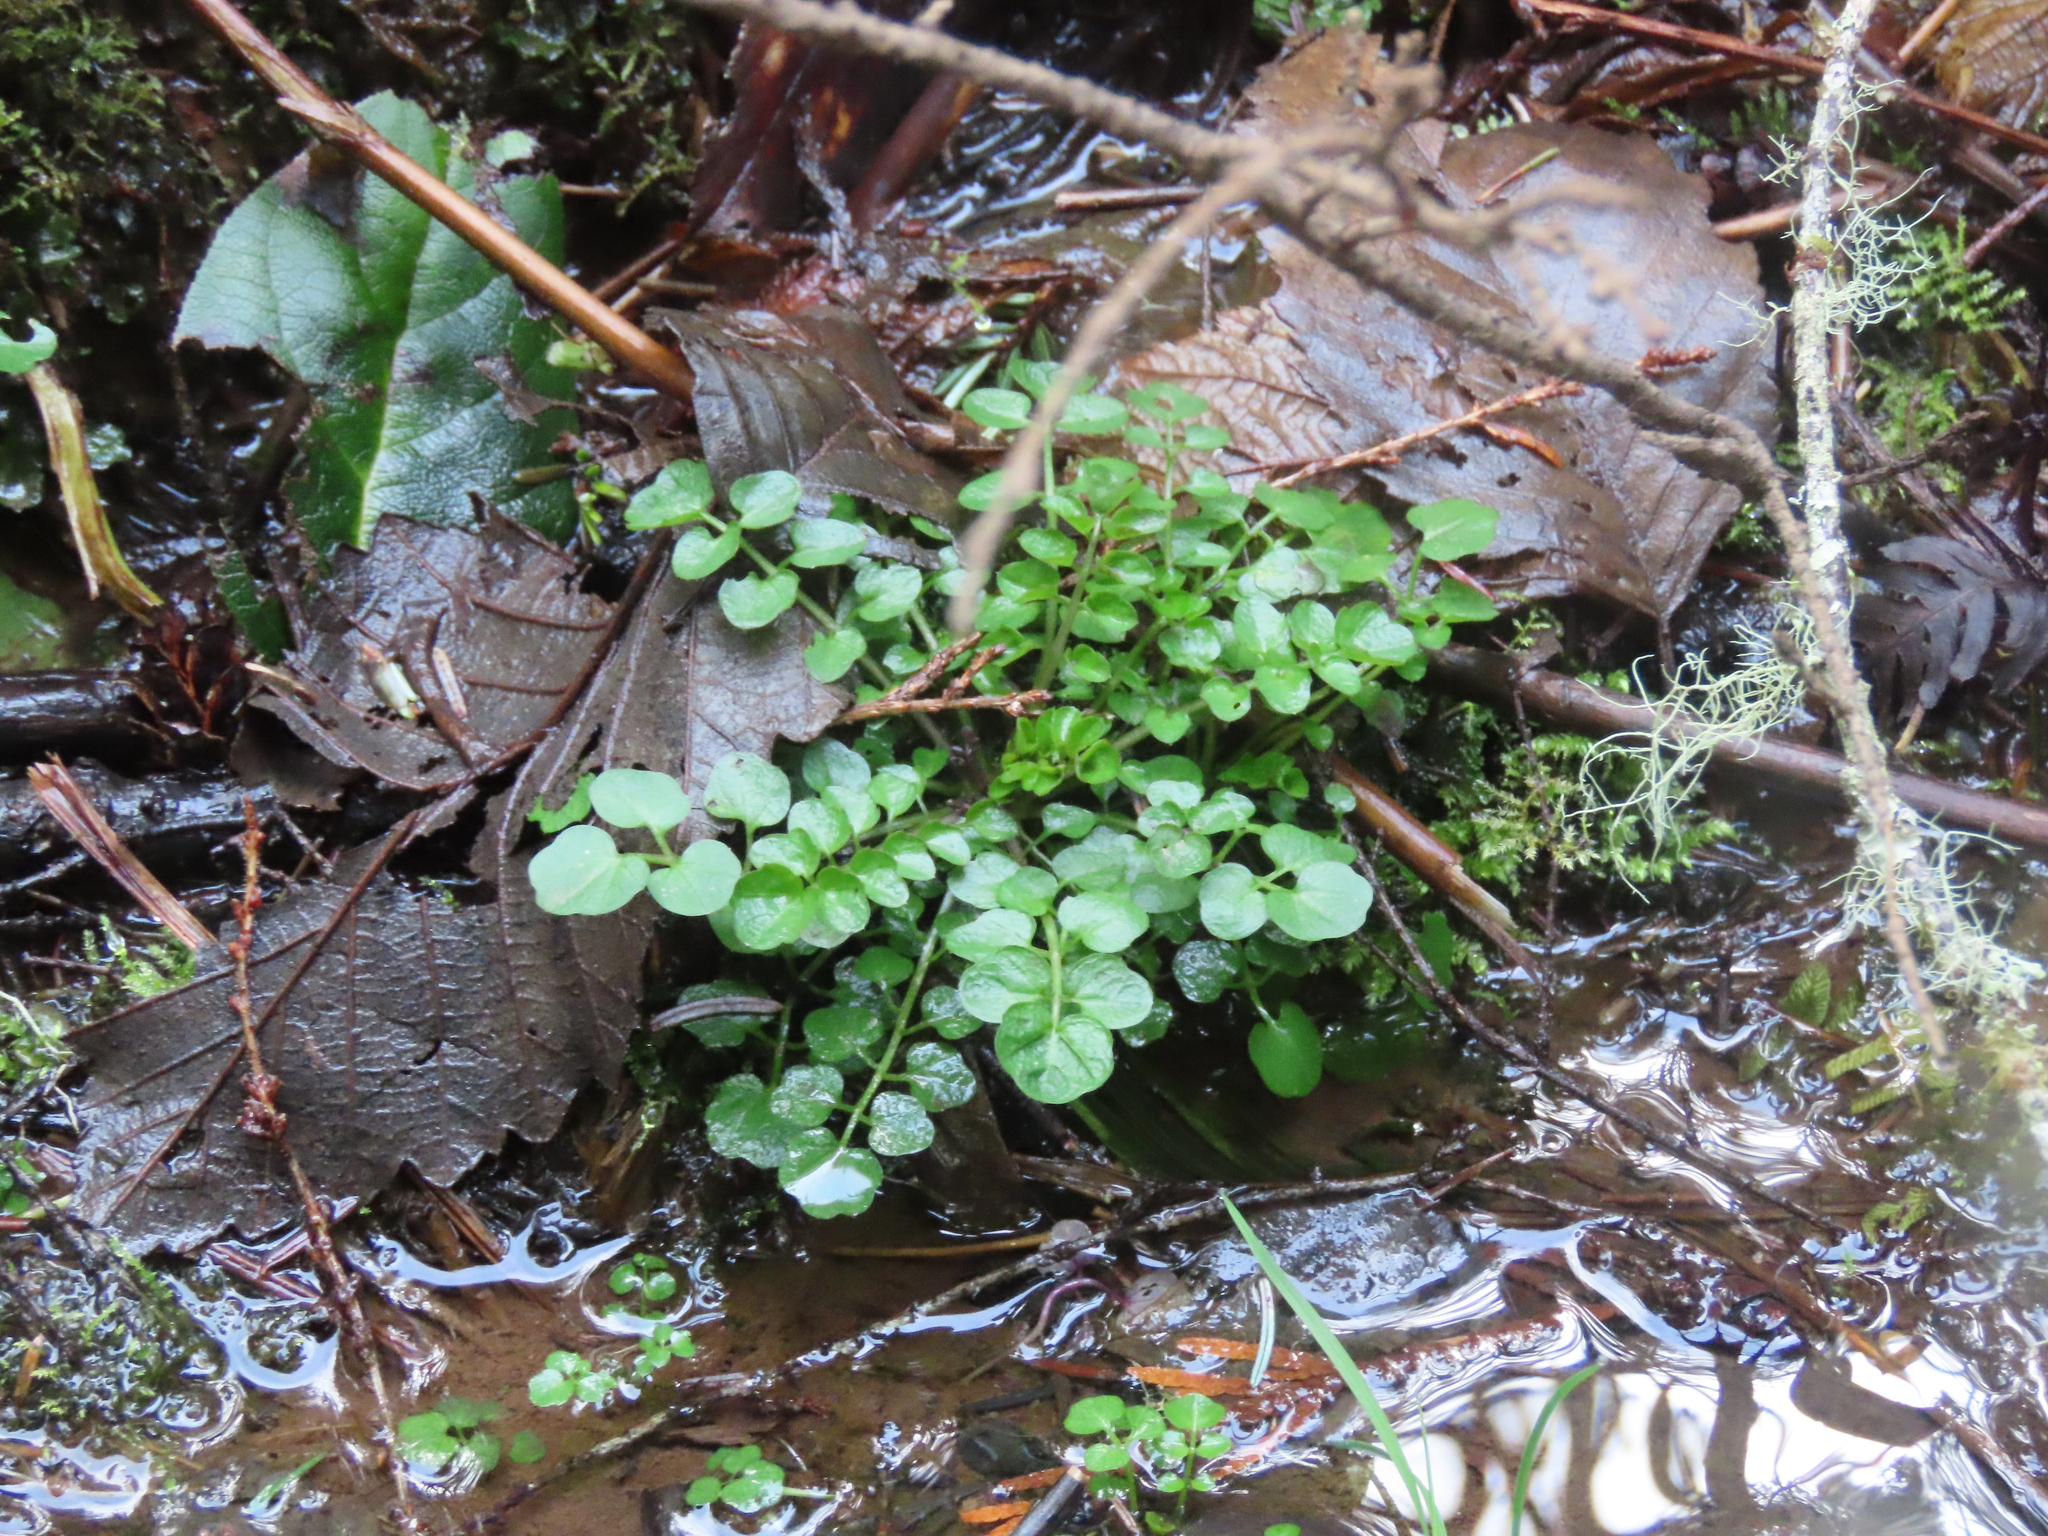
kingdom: Plantae
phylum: Tracheophyta
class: Magnoliopsida
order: Brassicales
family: Brassicaceae
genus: Cardamine
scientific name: Cardamine flexuosa
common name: Woodland bittercress
